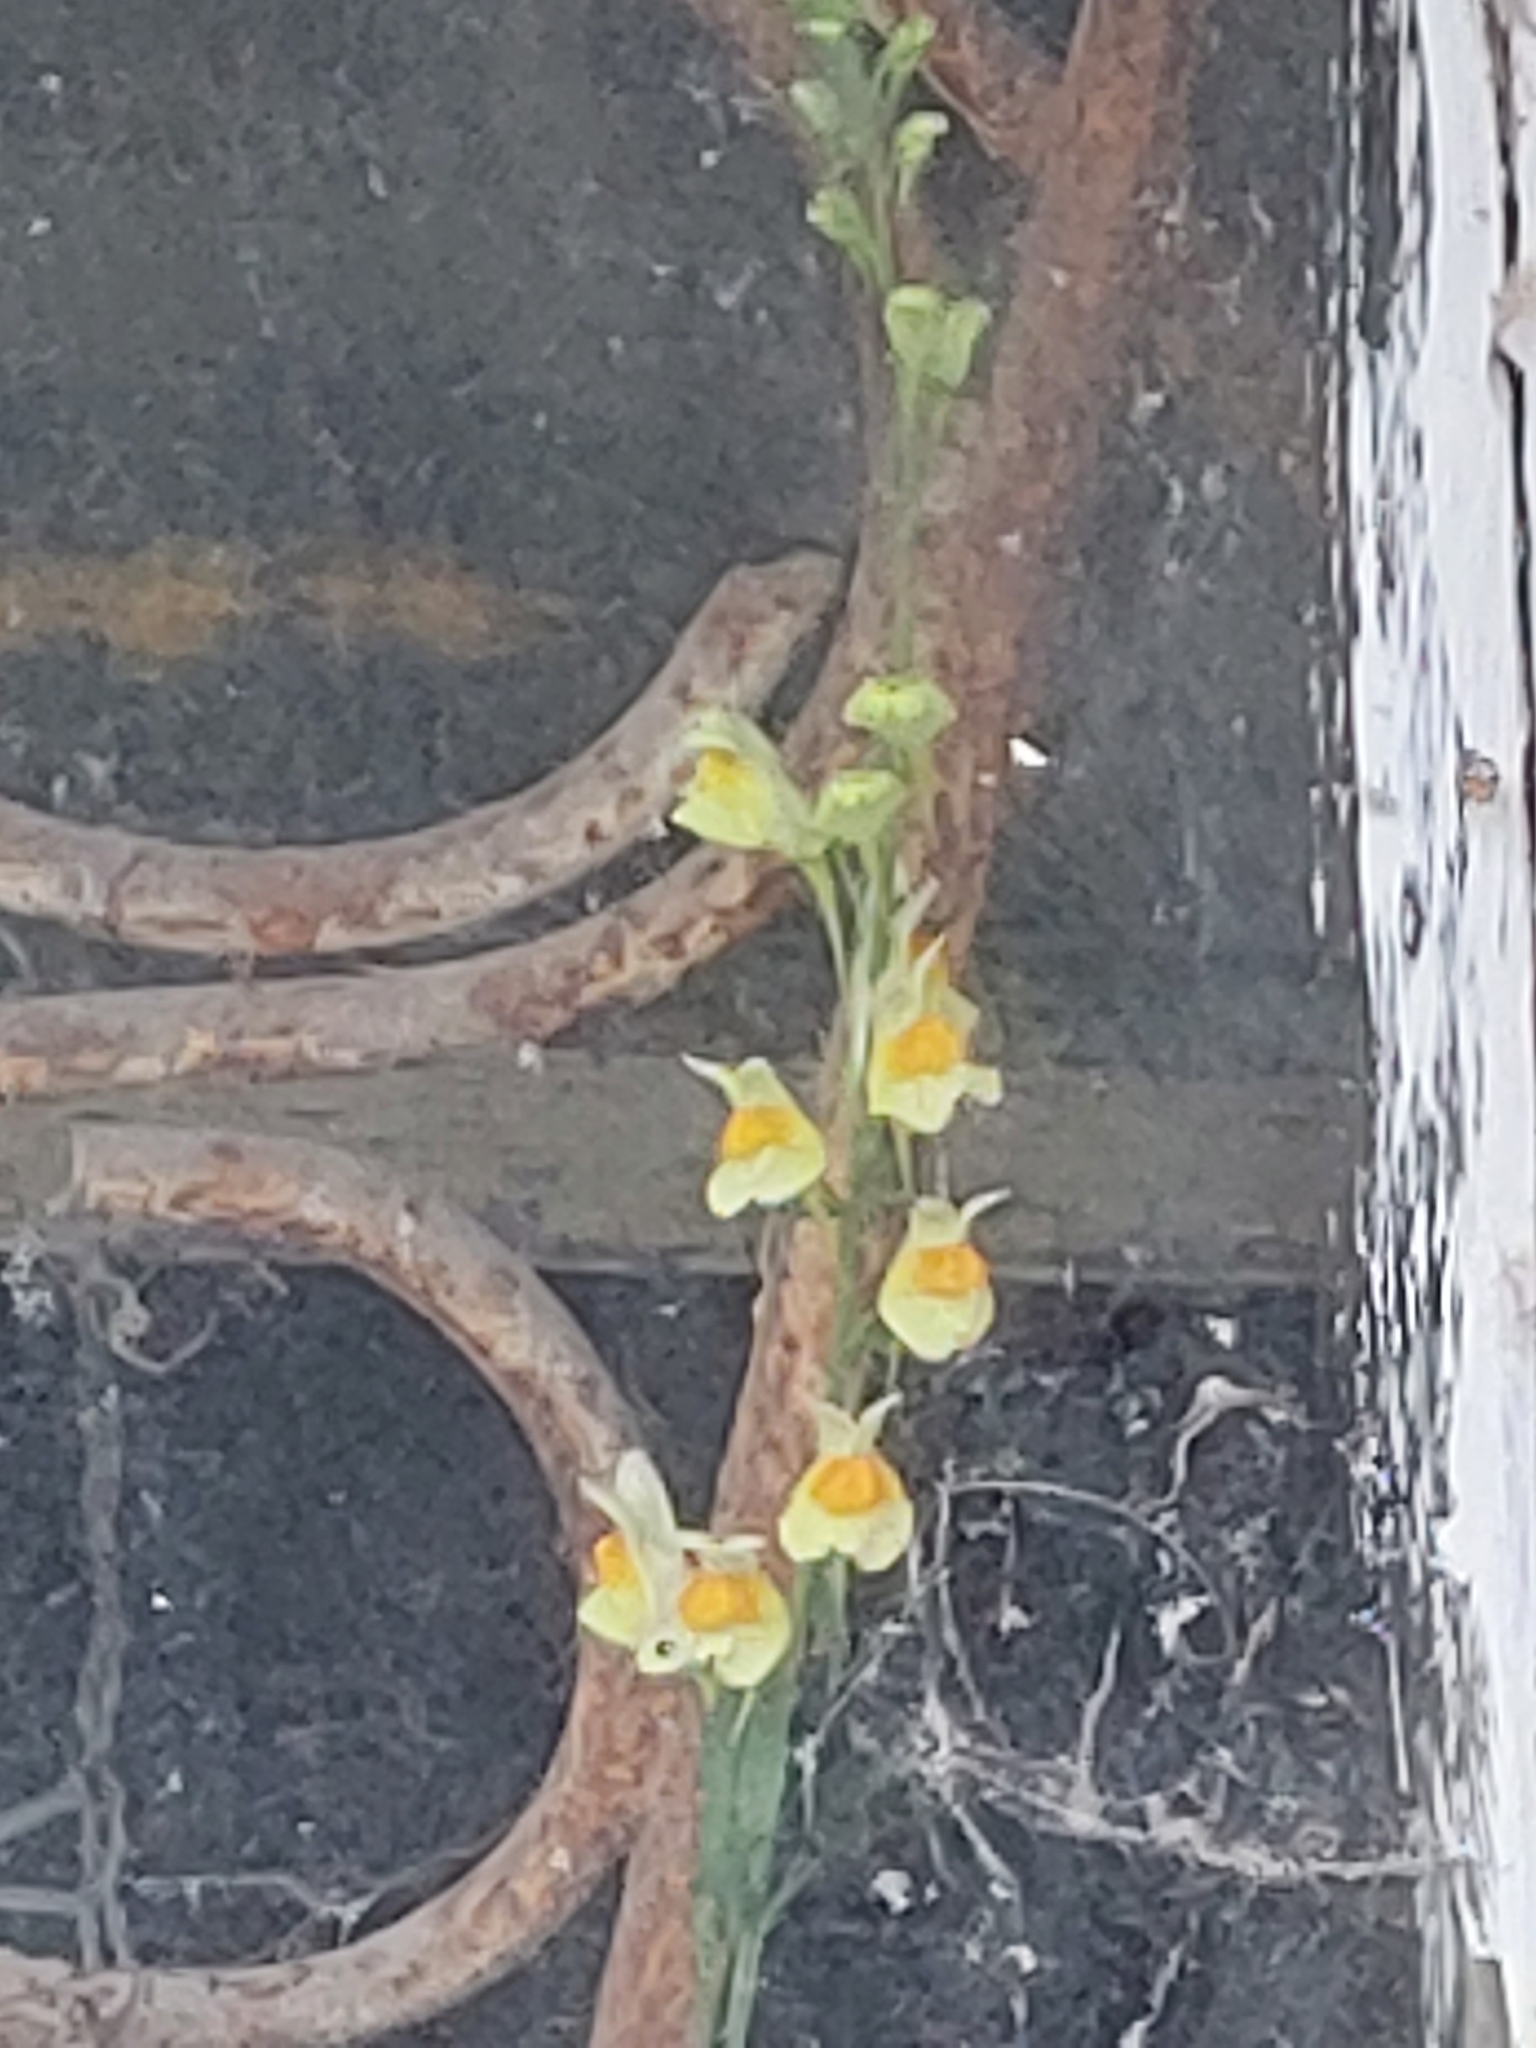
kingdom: Plantae
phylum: Tracheophyta
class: Magnoliopsida
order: Lamiales
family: Plantaginaceae
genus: Linaria
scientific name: Linaria vulgaris
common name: Butter and eggs
